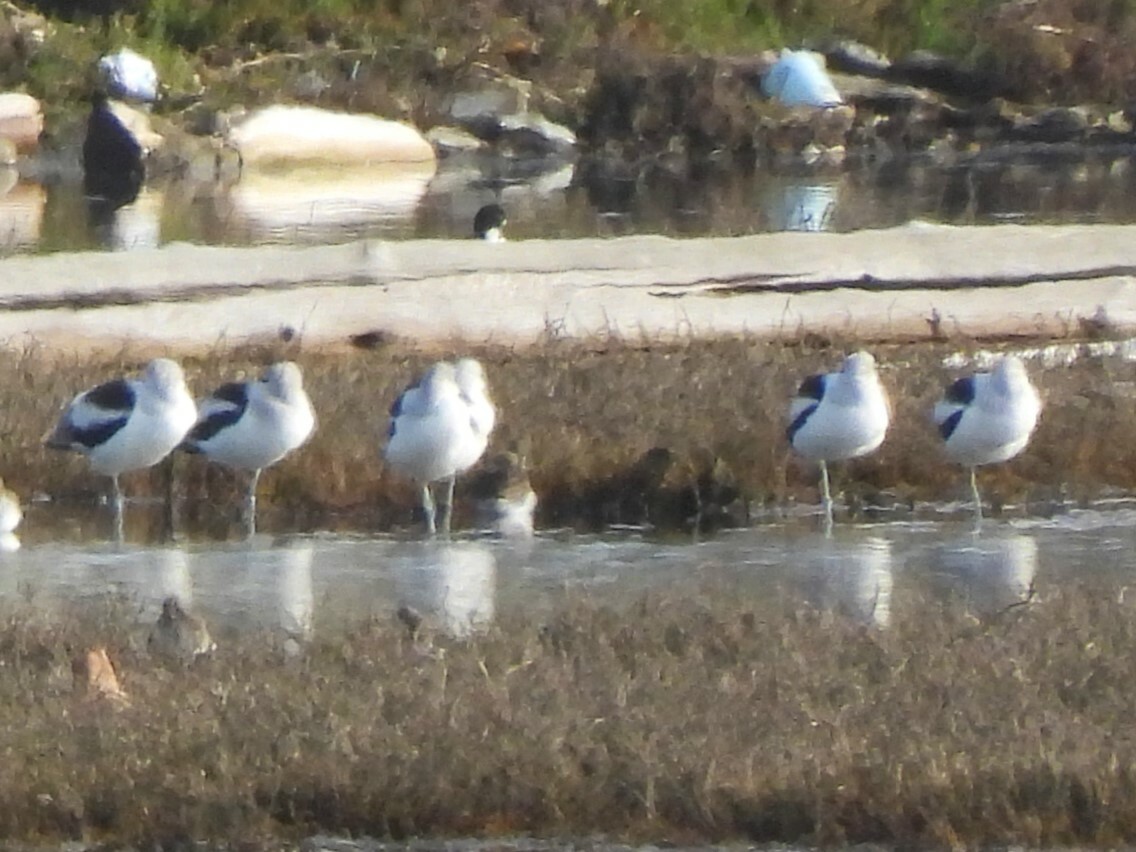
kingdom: Animalia
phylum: Chordata
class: Aves
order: Charadriiformes
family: Recurvirostridae
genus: Recurvirostra
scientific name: Recurvirostra americana
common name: American avocet
